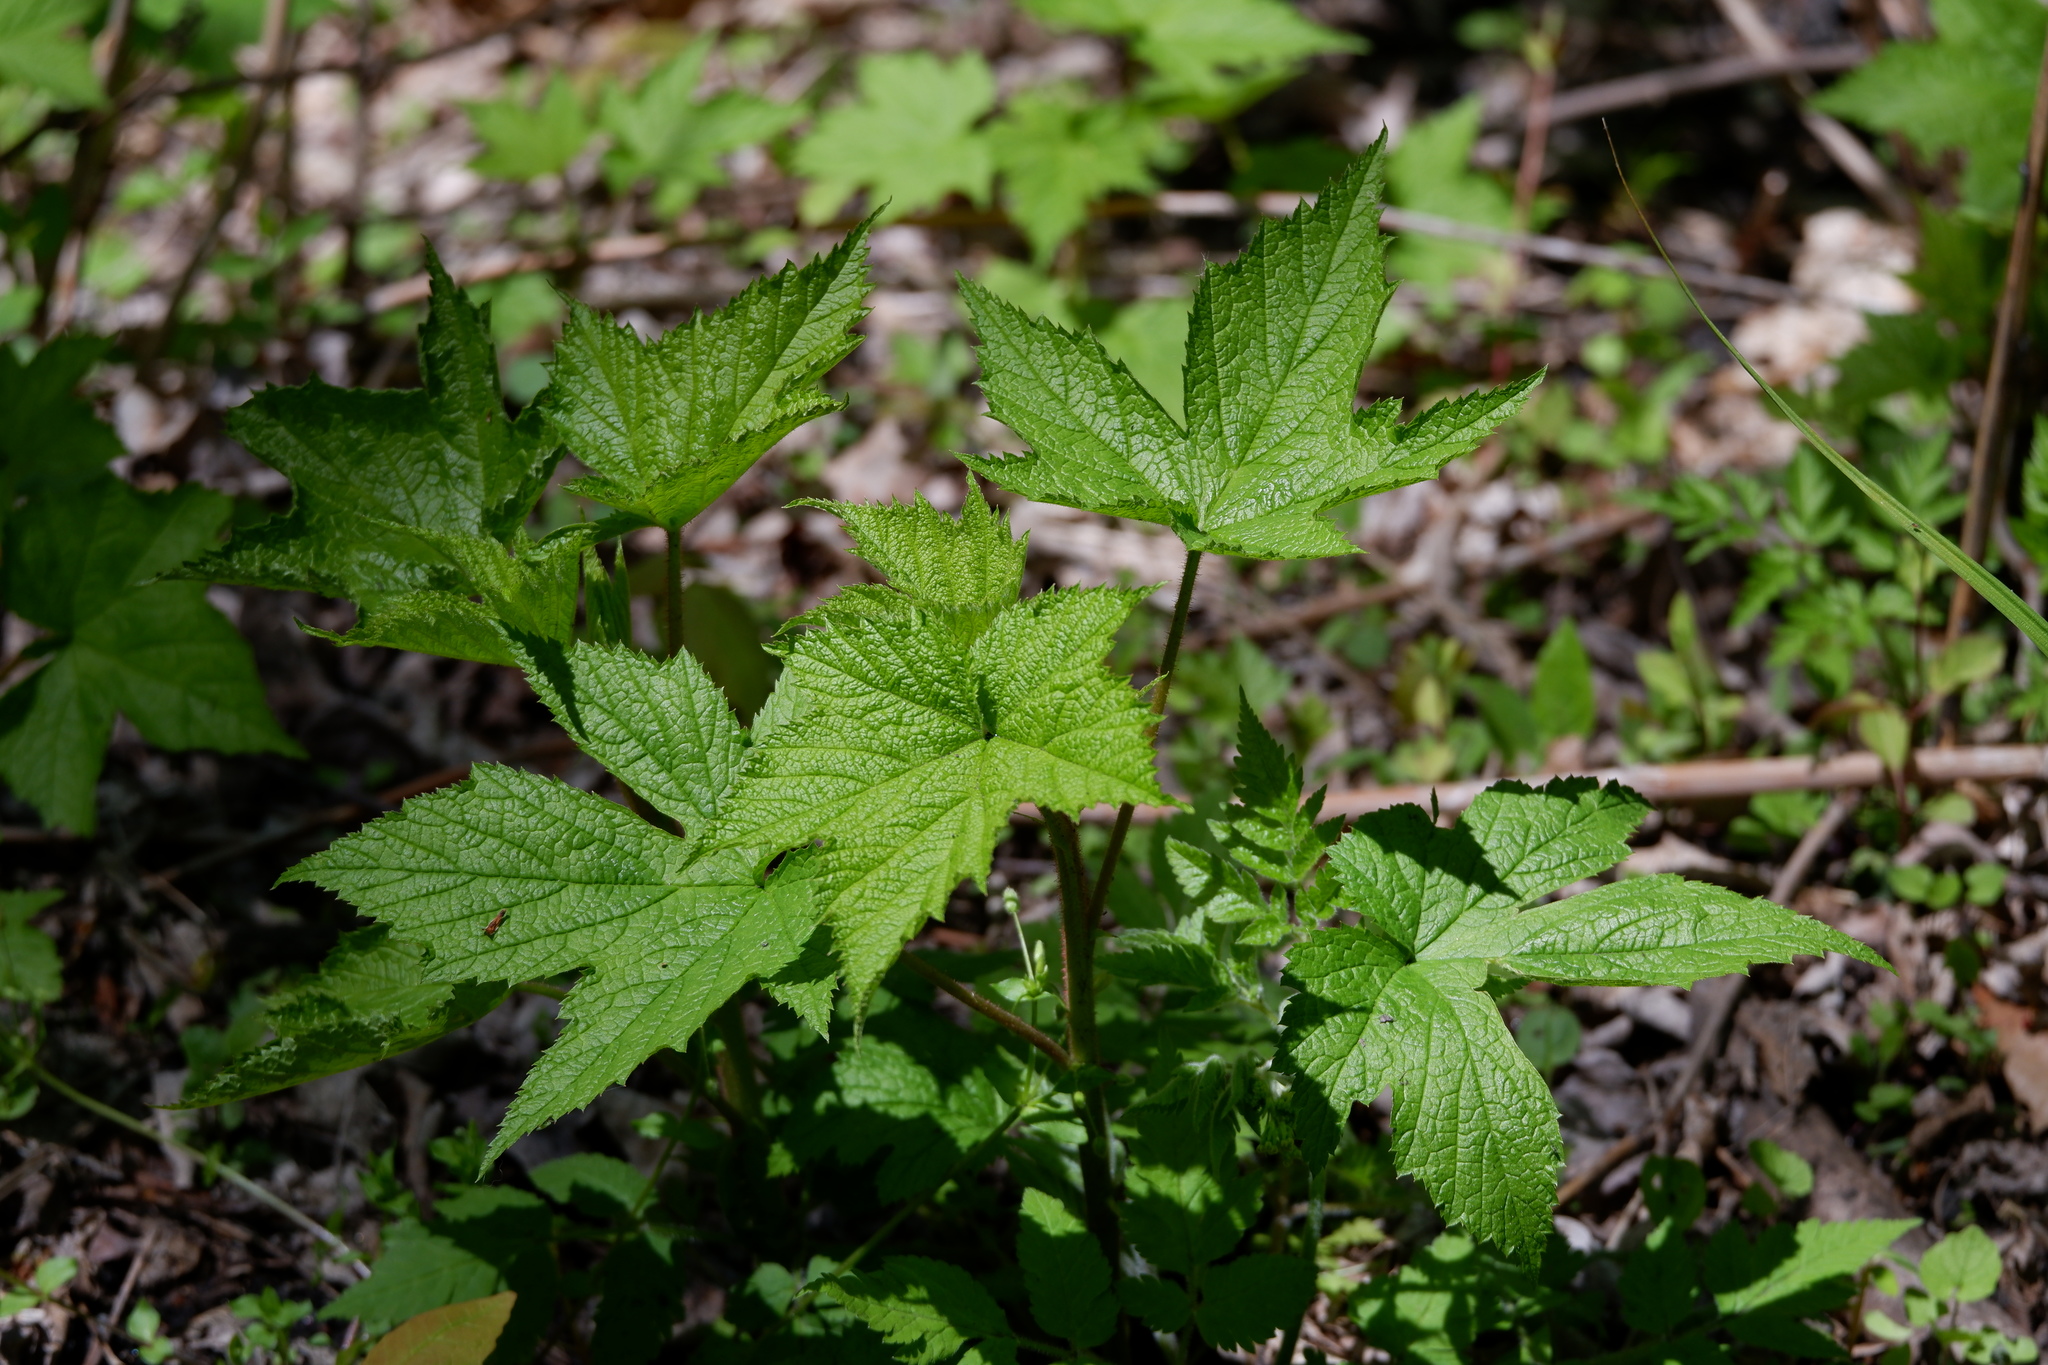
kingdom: Plantae
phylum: Tracheophyta
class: Magnoliopsida
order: Rosales
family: Rosaceae
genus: Rubus
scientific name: Rubus odoratus
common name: Purple-flowered raspberry
